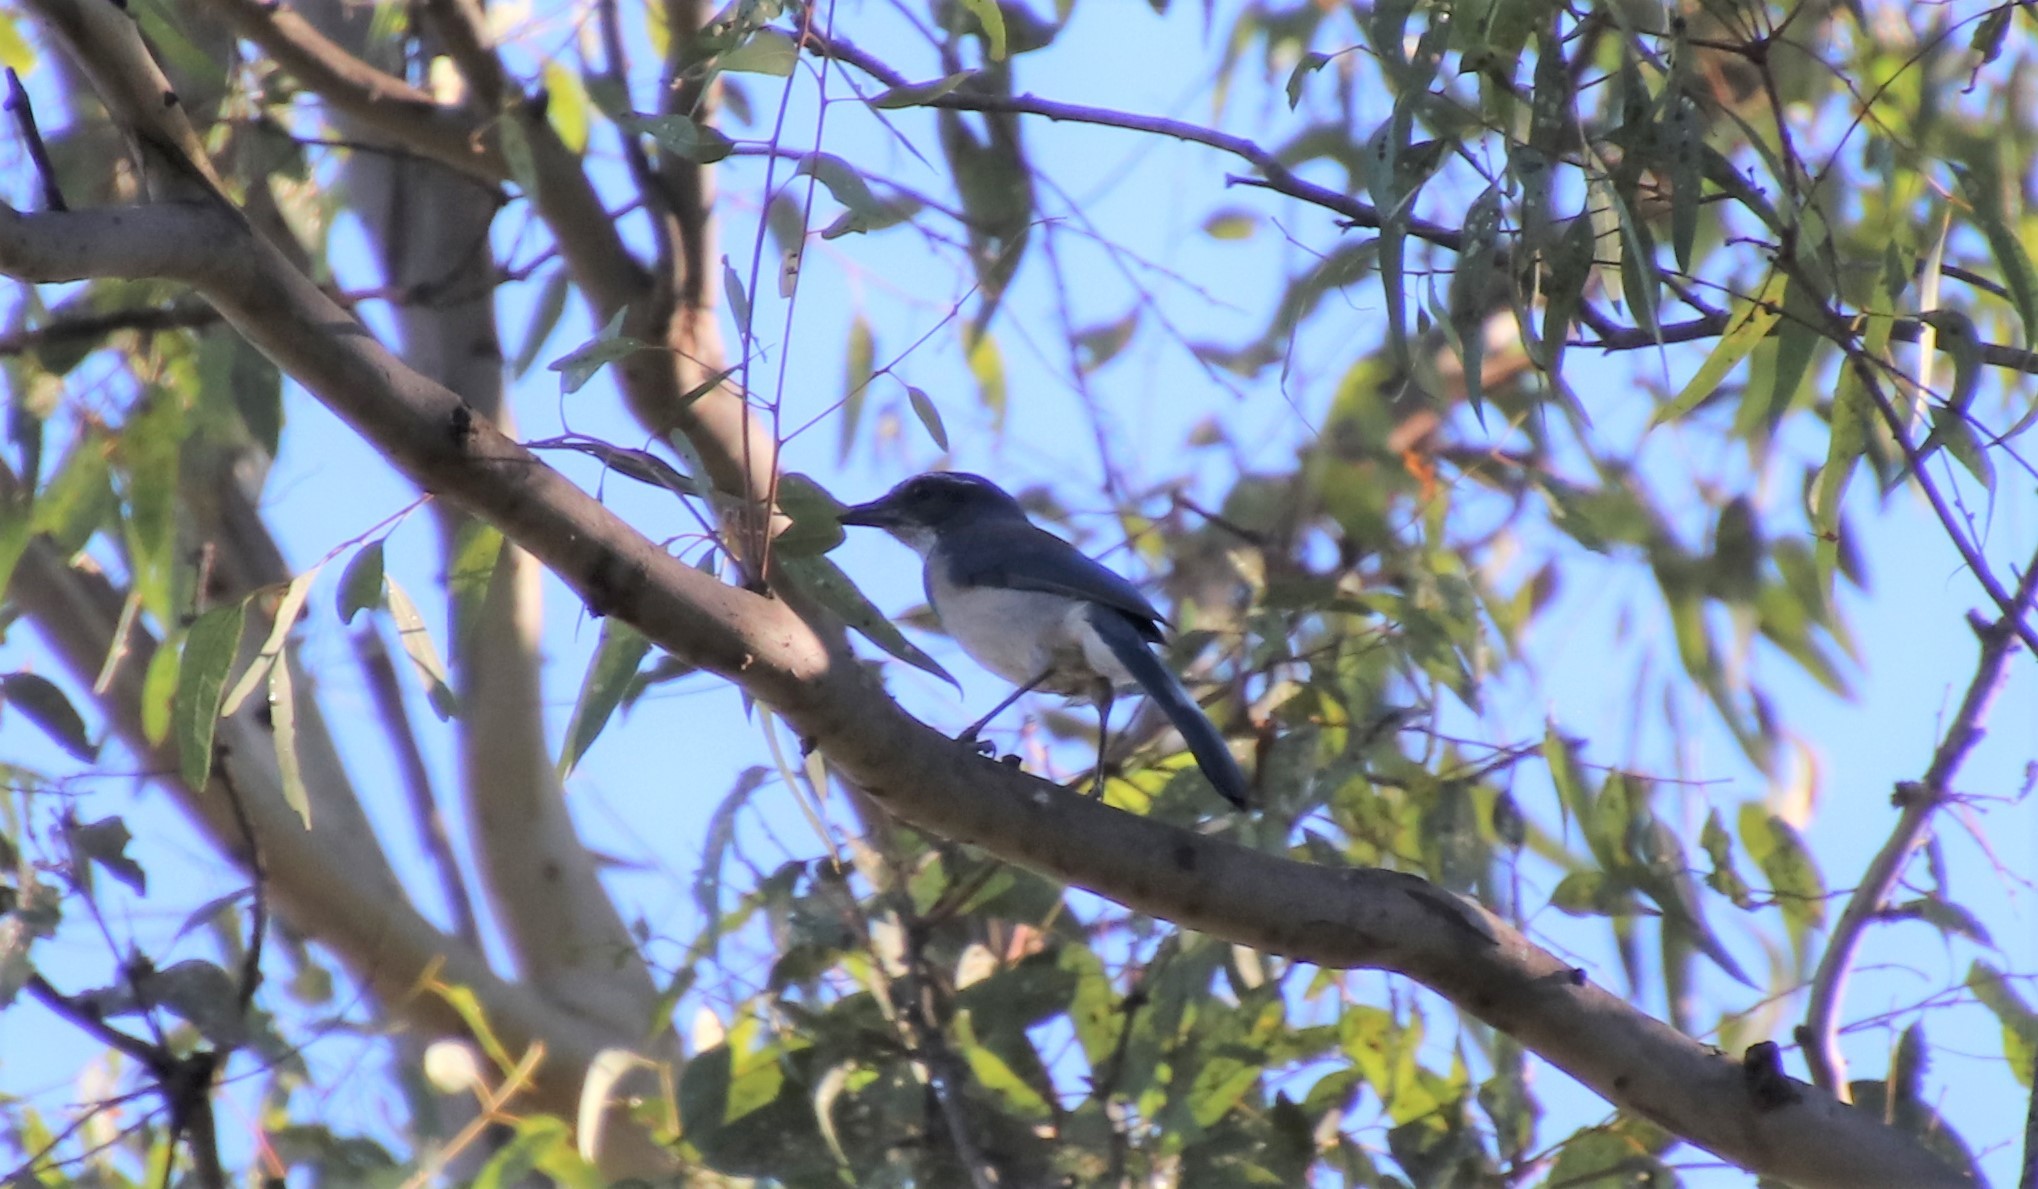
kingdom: Animalia
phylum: Chordata
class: Aves
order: Passeriformes
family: Corvidae
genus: Aphelocoma
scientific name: Aphelocoma californica
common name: California scrub-jay
